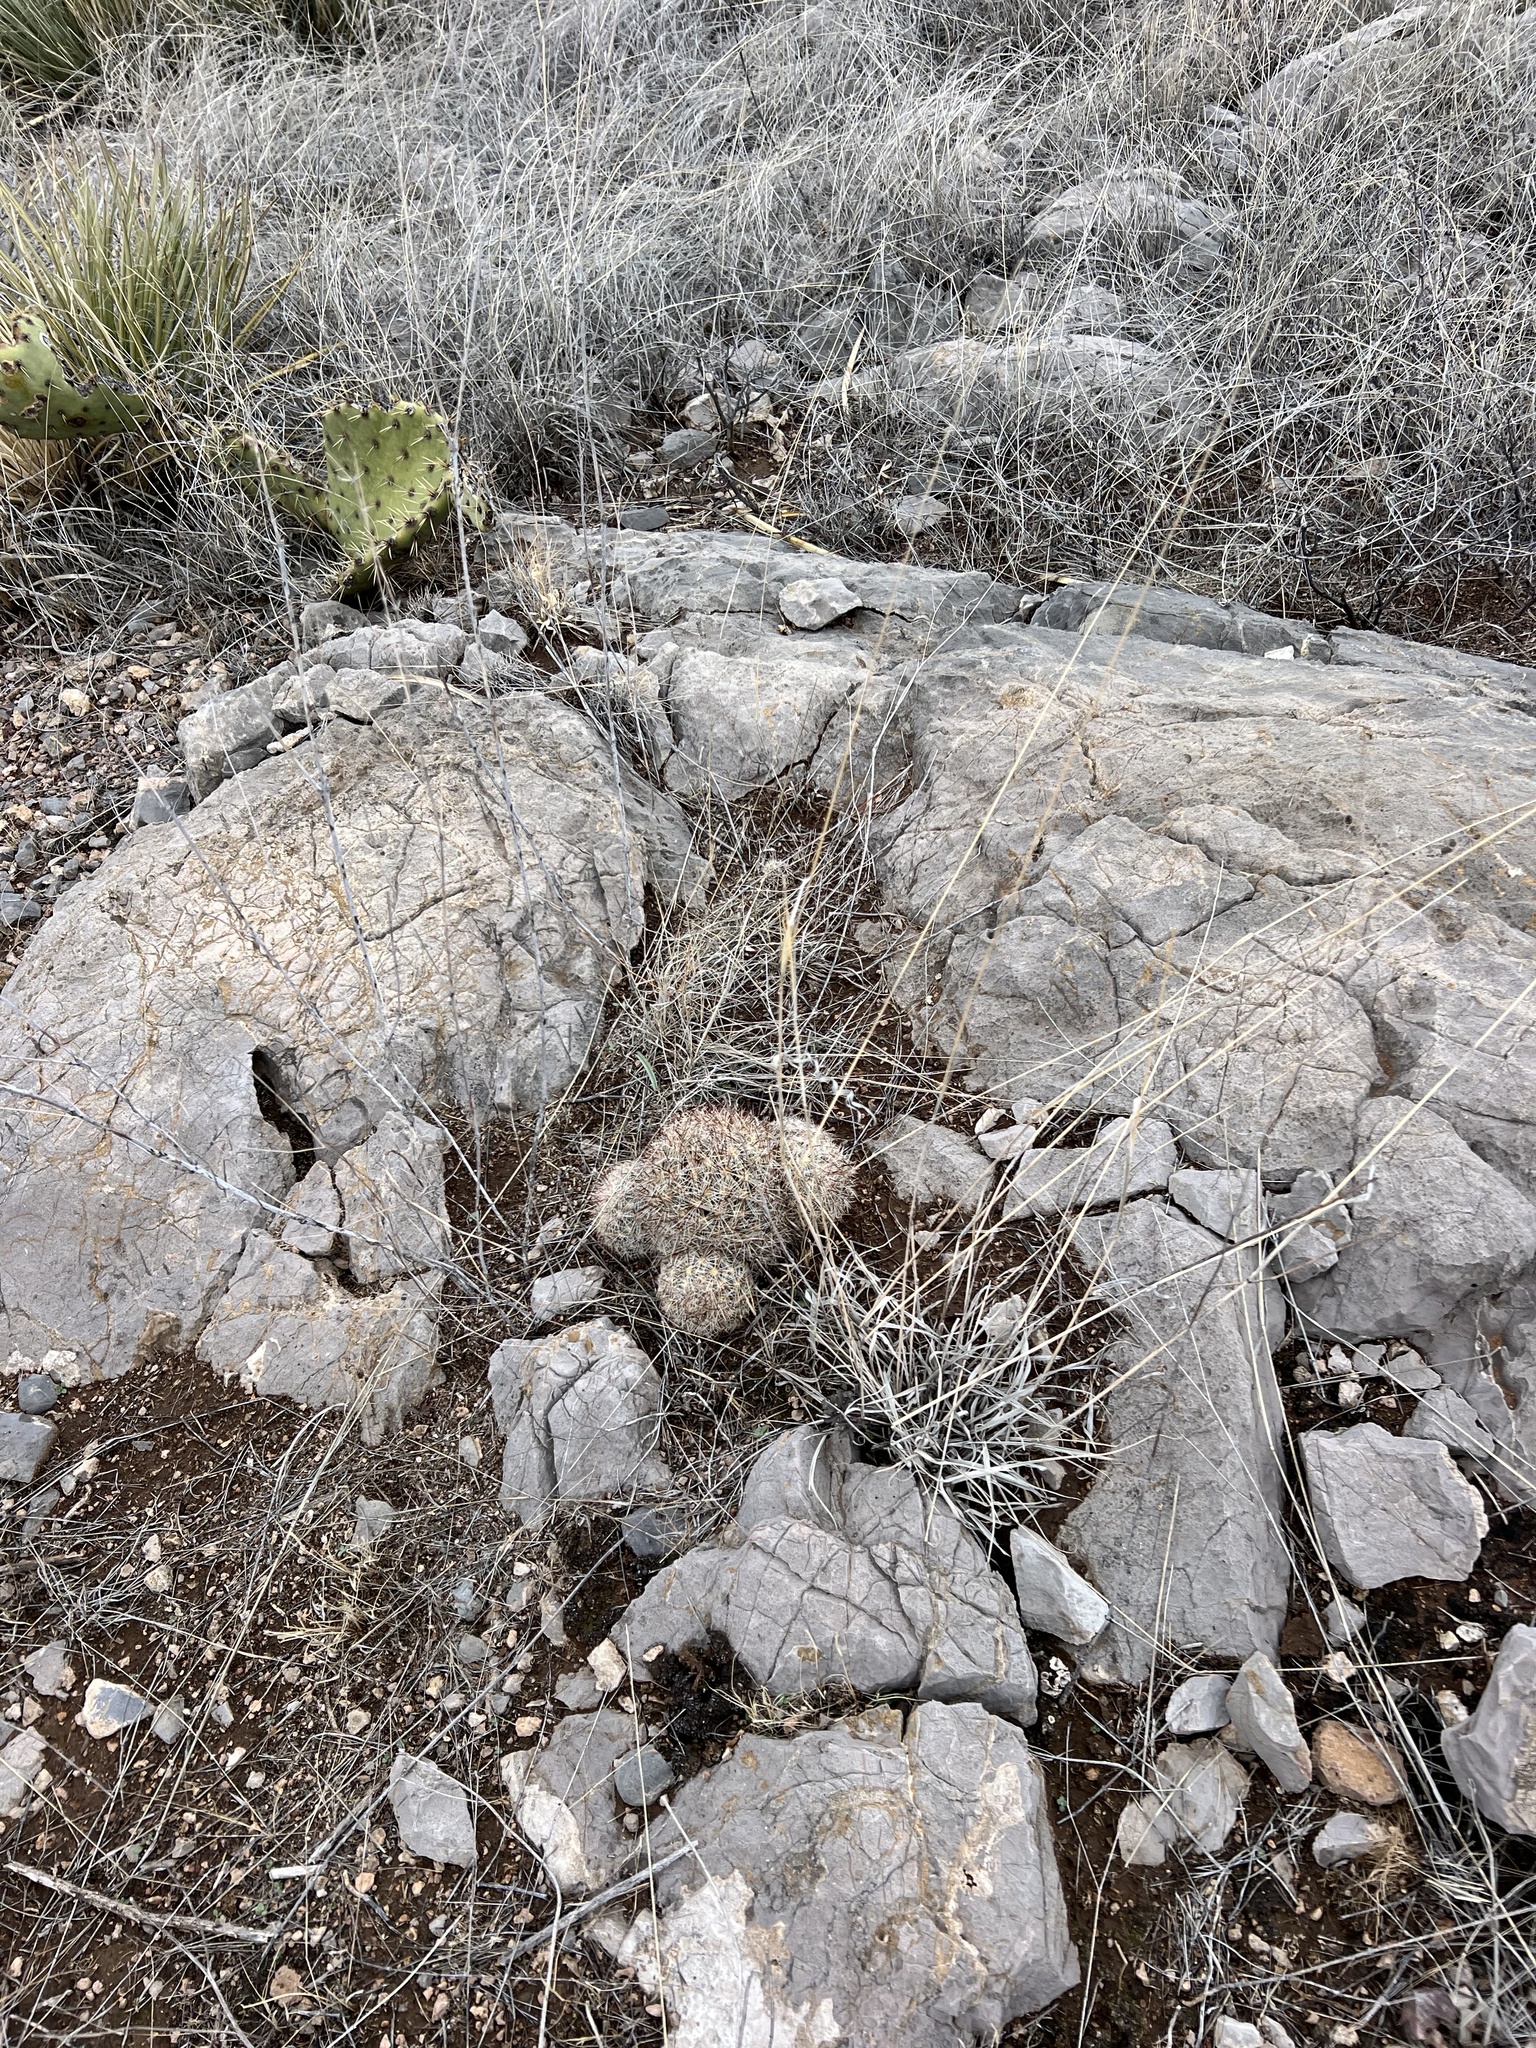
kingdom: Plantae
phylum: Tracheophyta
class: Magnoliopsida
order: Caryophyllales
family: Cactaceae
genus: Pelecyphora
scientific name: Pelecyphora vivipara
